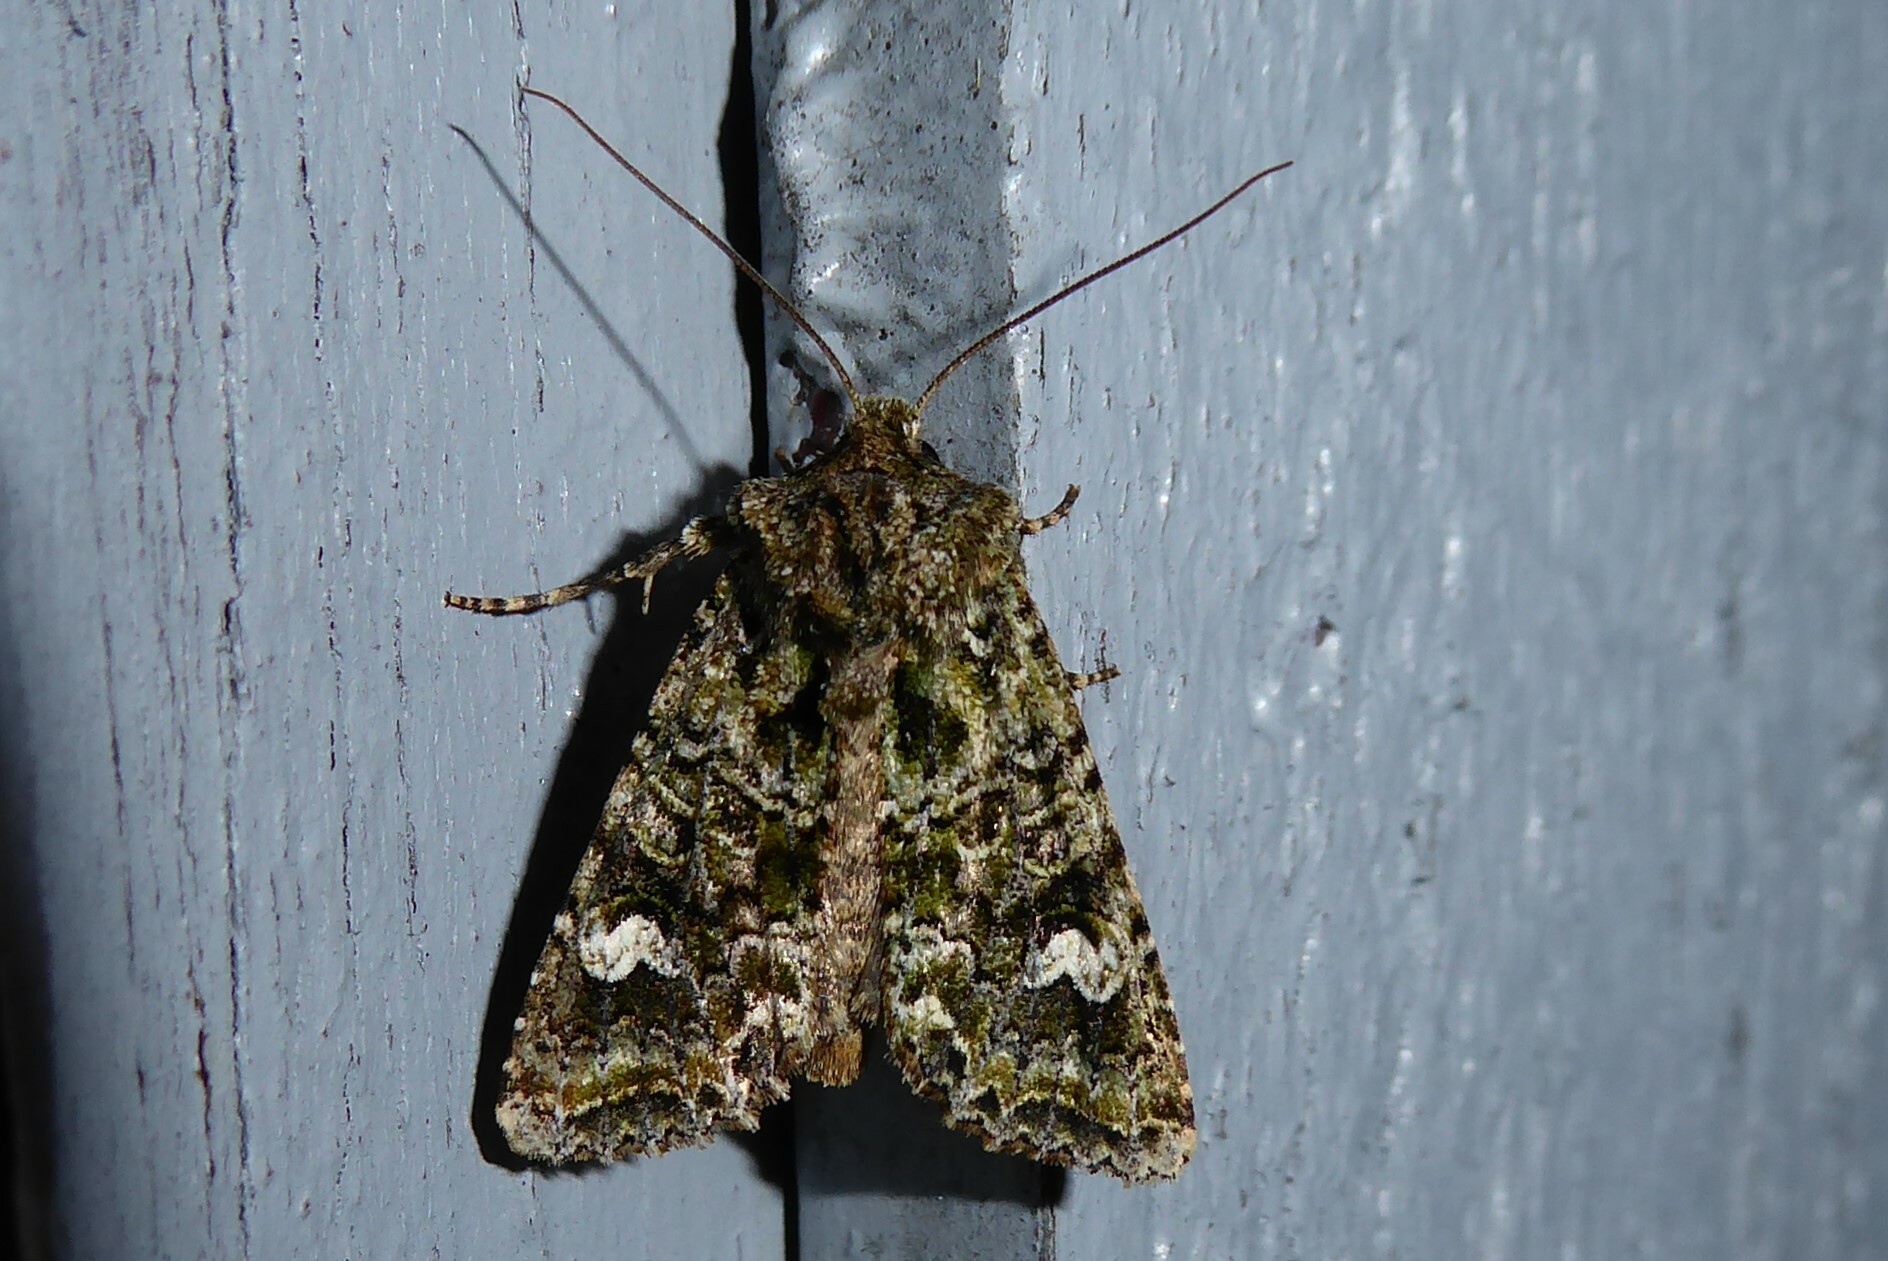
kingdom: Animalia
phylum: Arthropoda
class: Insecta
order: Lepidoptera
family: Noctuidae
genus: Ichneutica
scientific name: Ichneutica
